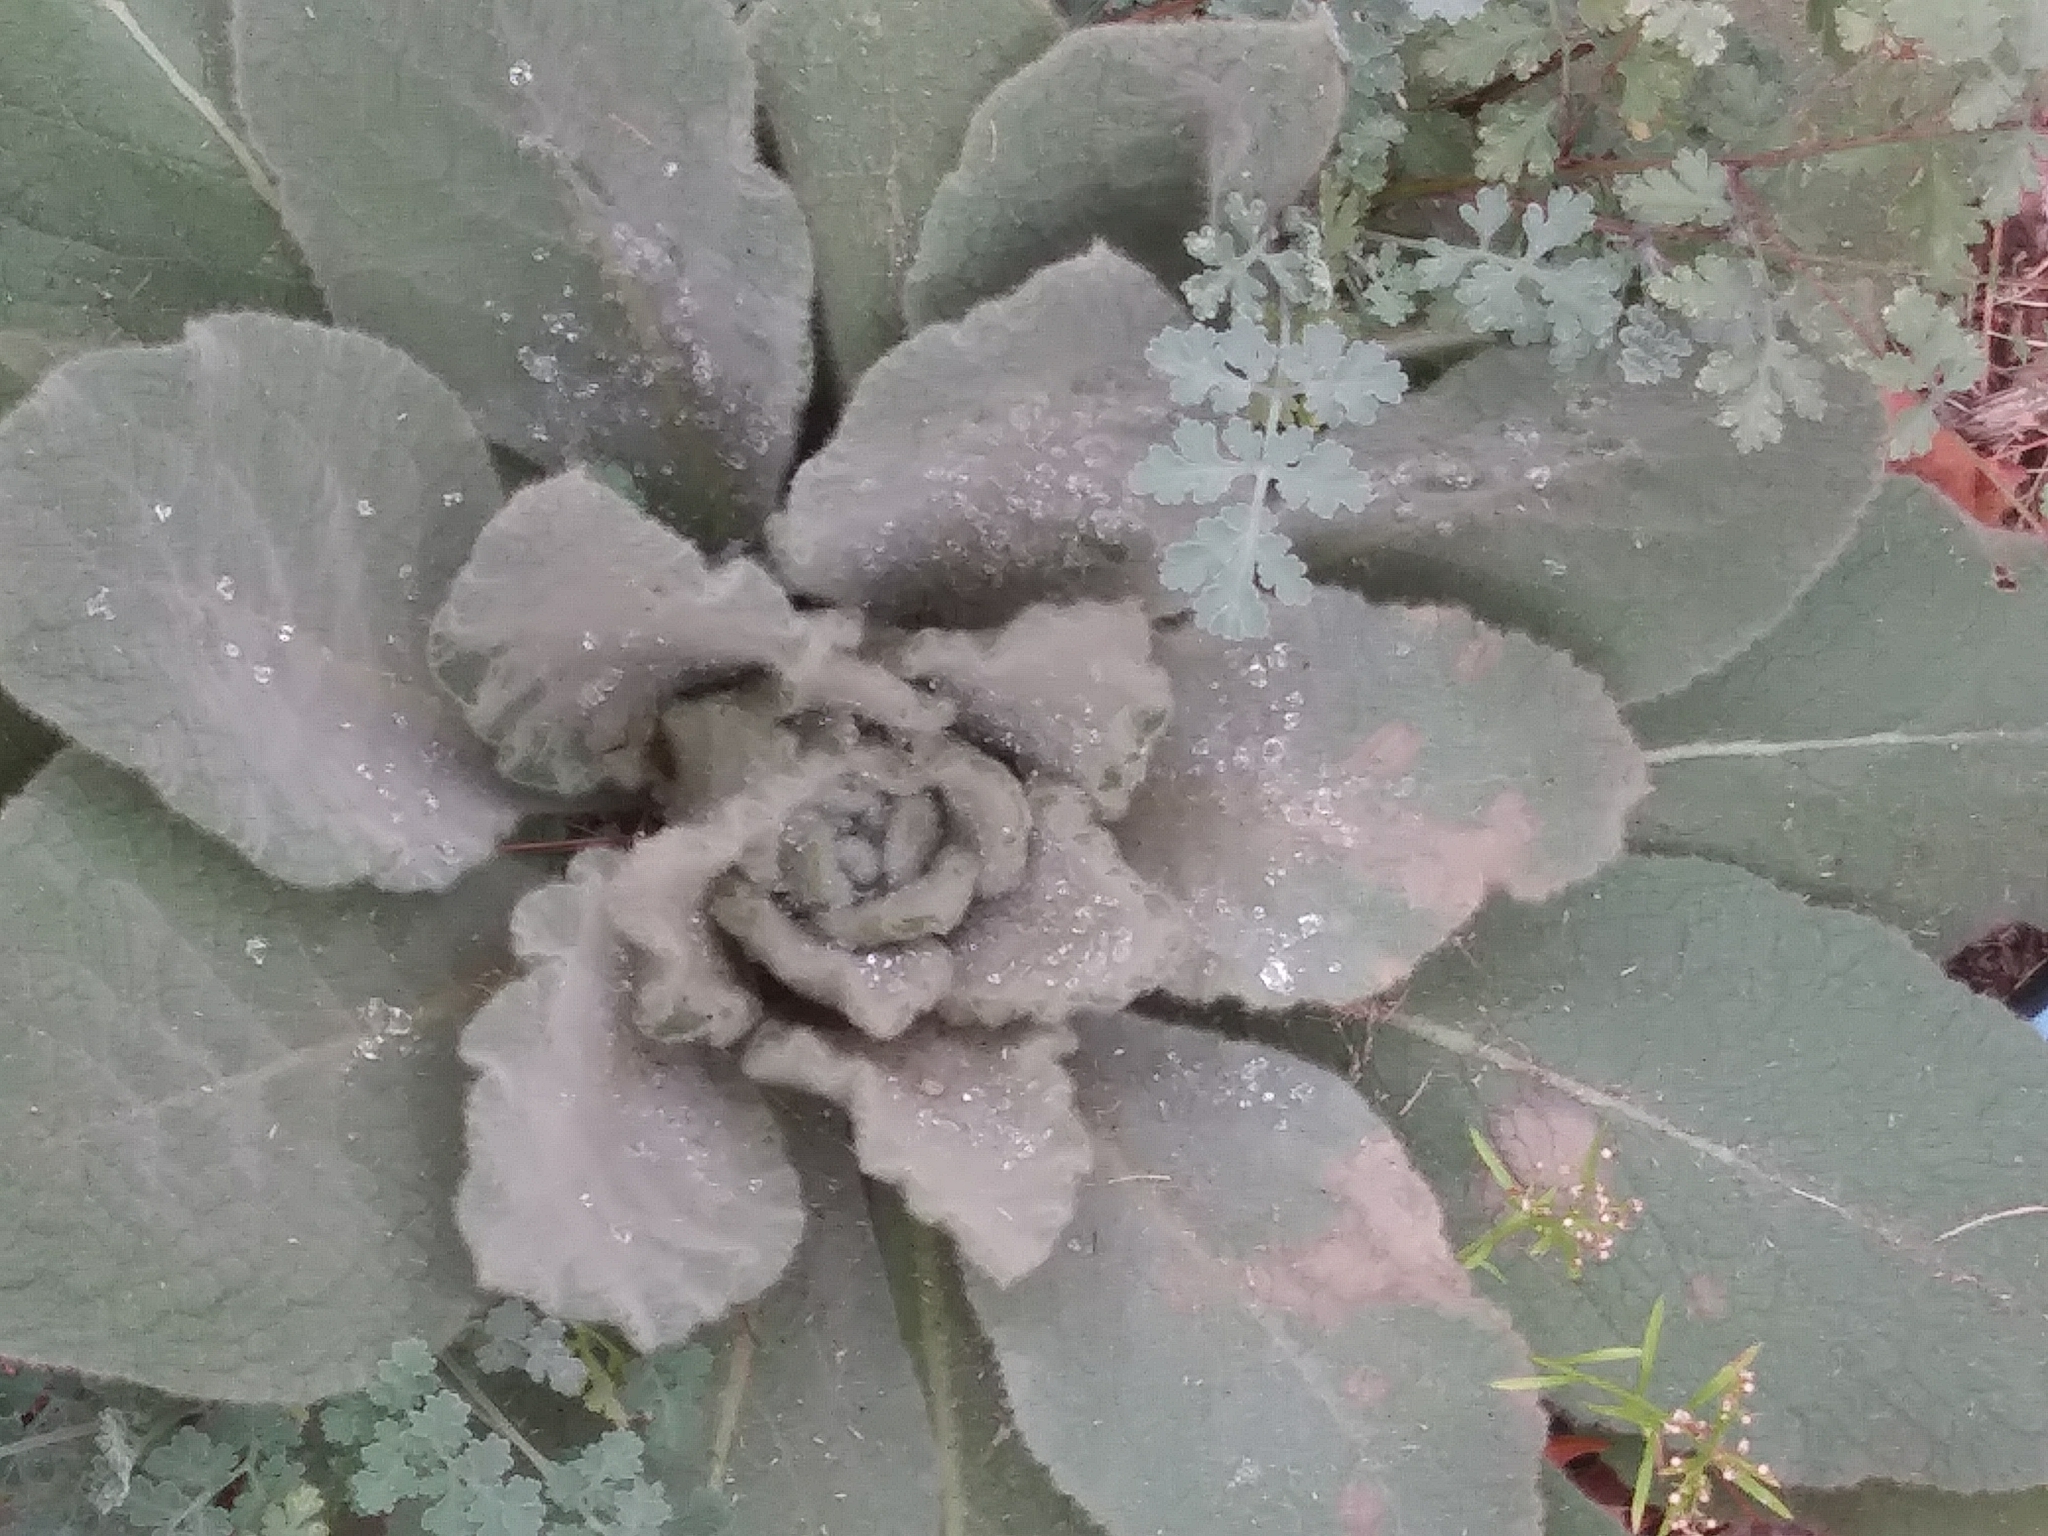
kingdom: Plantae
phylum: Tracheophyta
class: Magnoliopsida
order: Lamiales
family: Scrophulariaceae
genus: Verbascum
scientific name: Verbascum thapsus
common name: Common mullein
